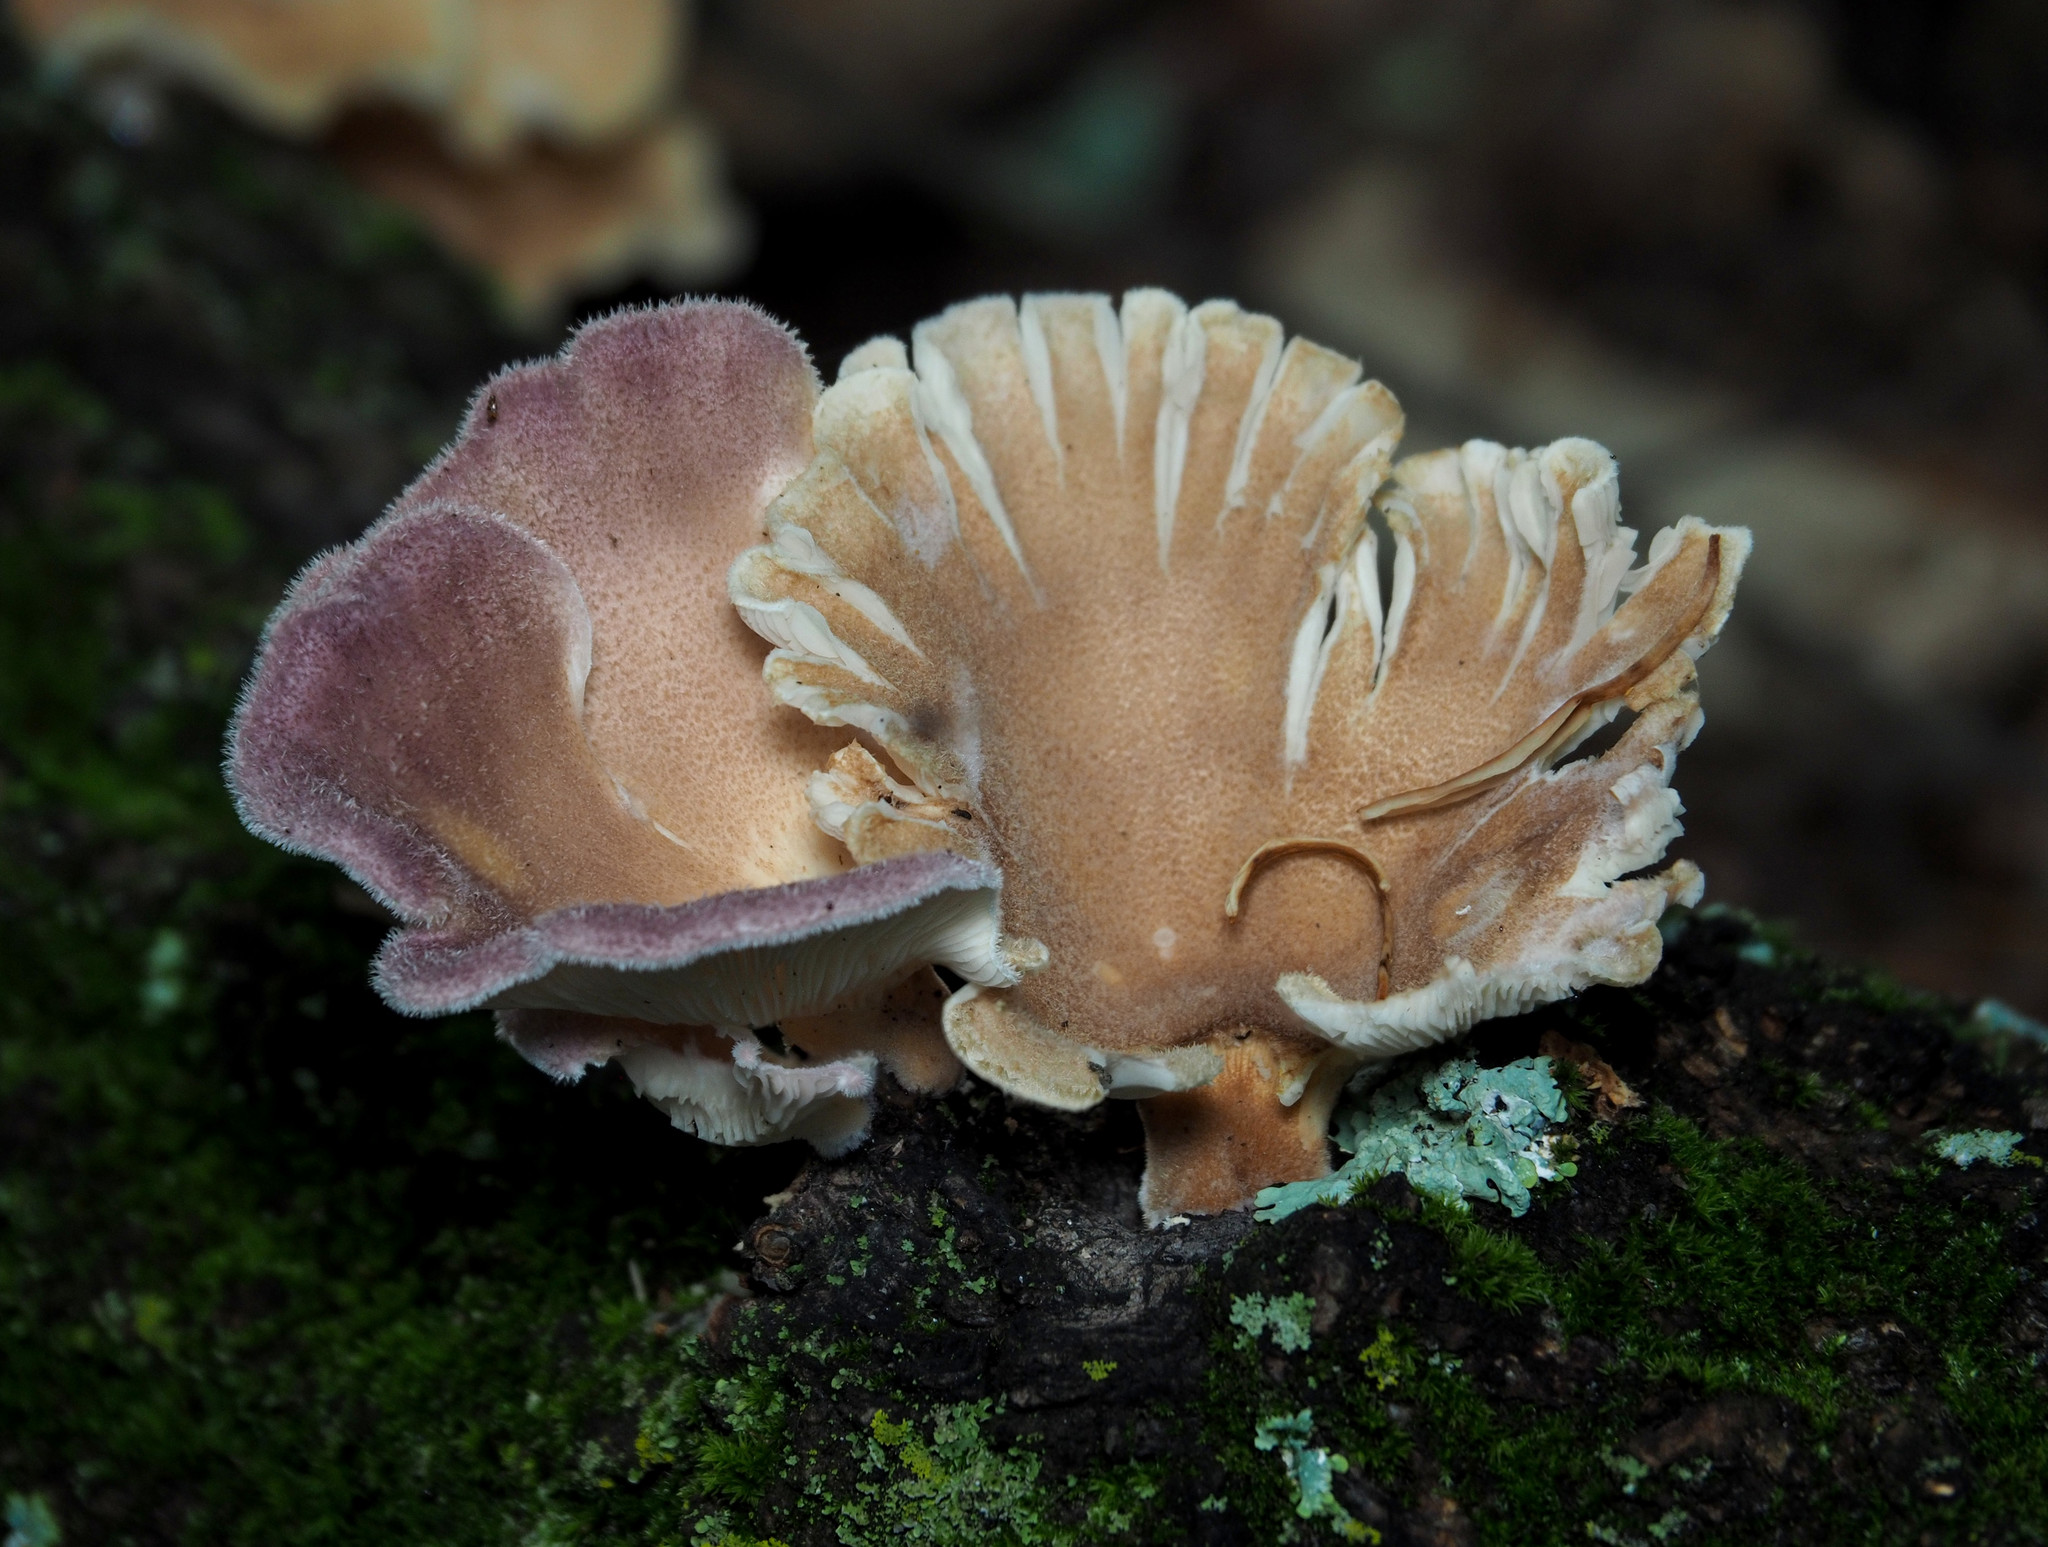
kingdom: Fungi
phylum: Basidiomycota
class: Agaricomycetes
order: Polyporales
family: Panaceae
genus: Panus
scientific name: Panus neostrigosus
